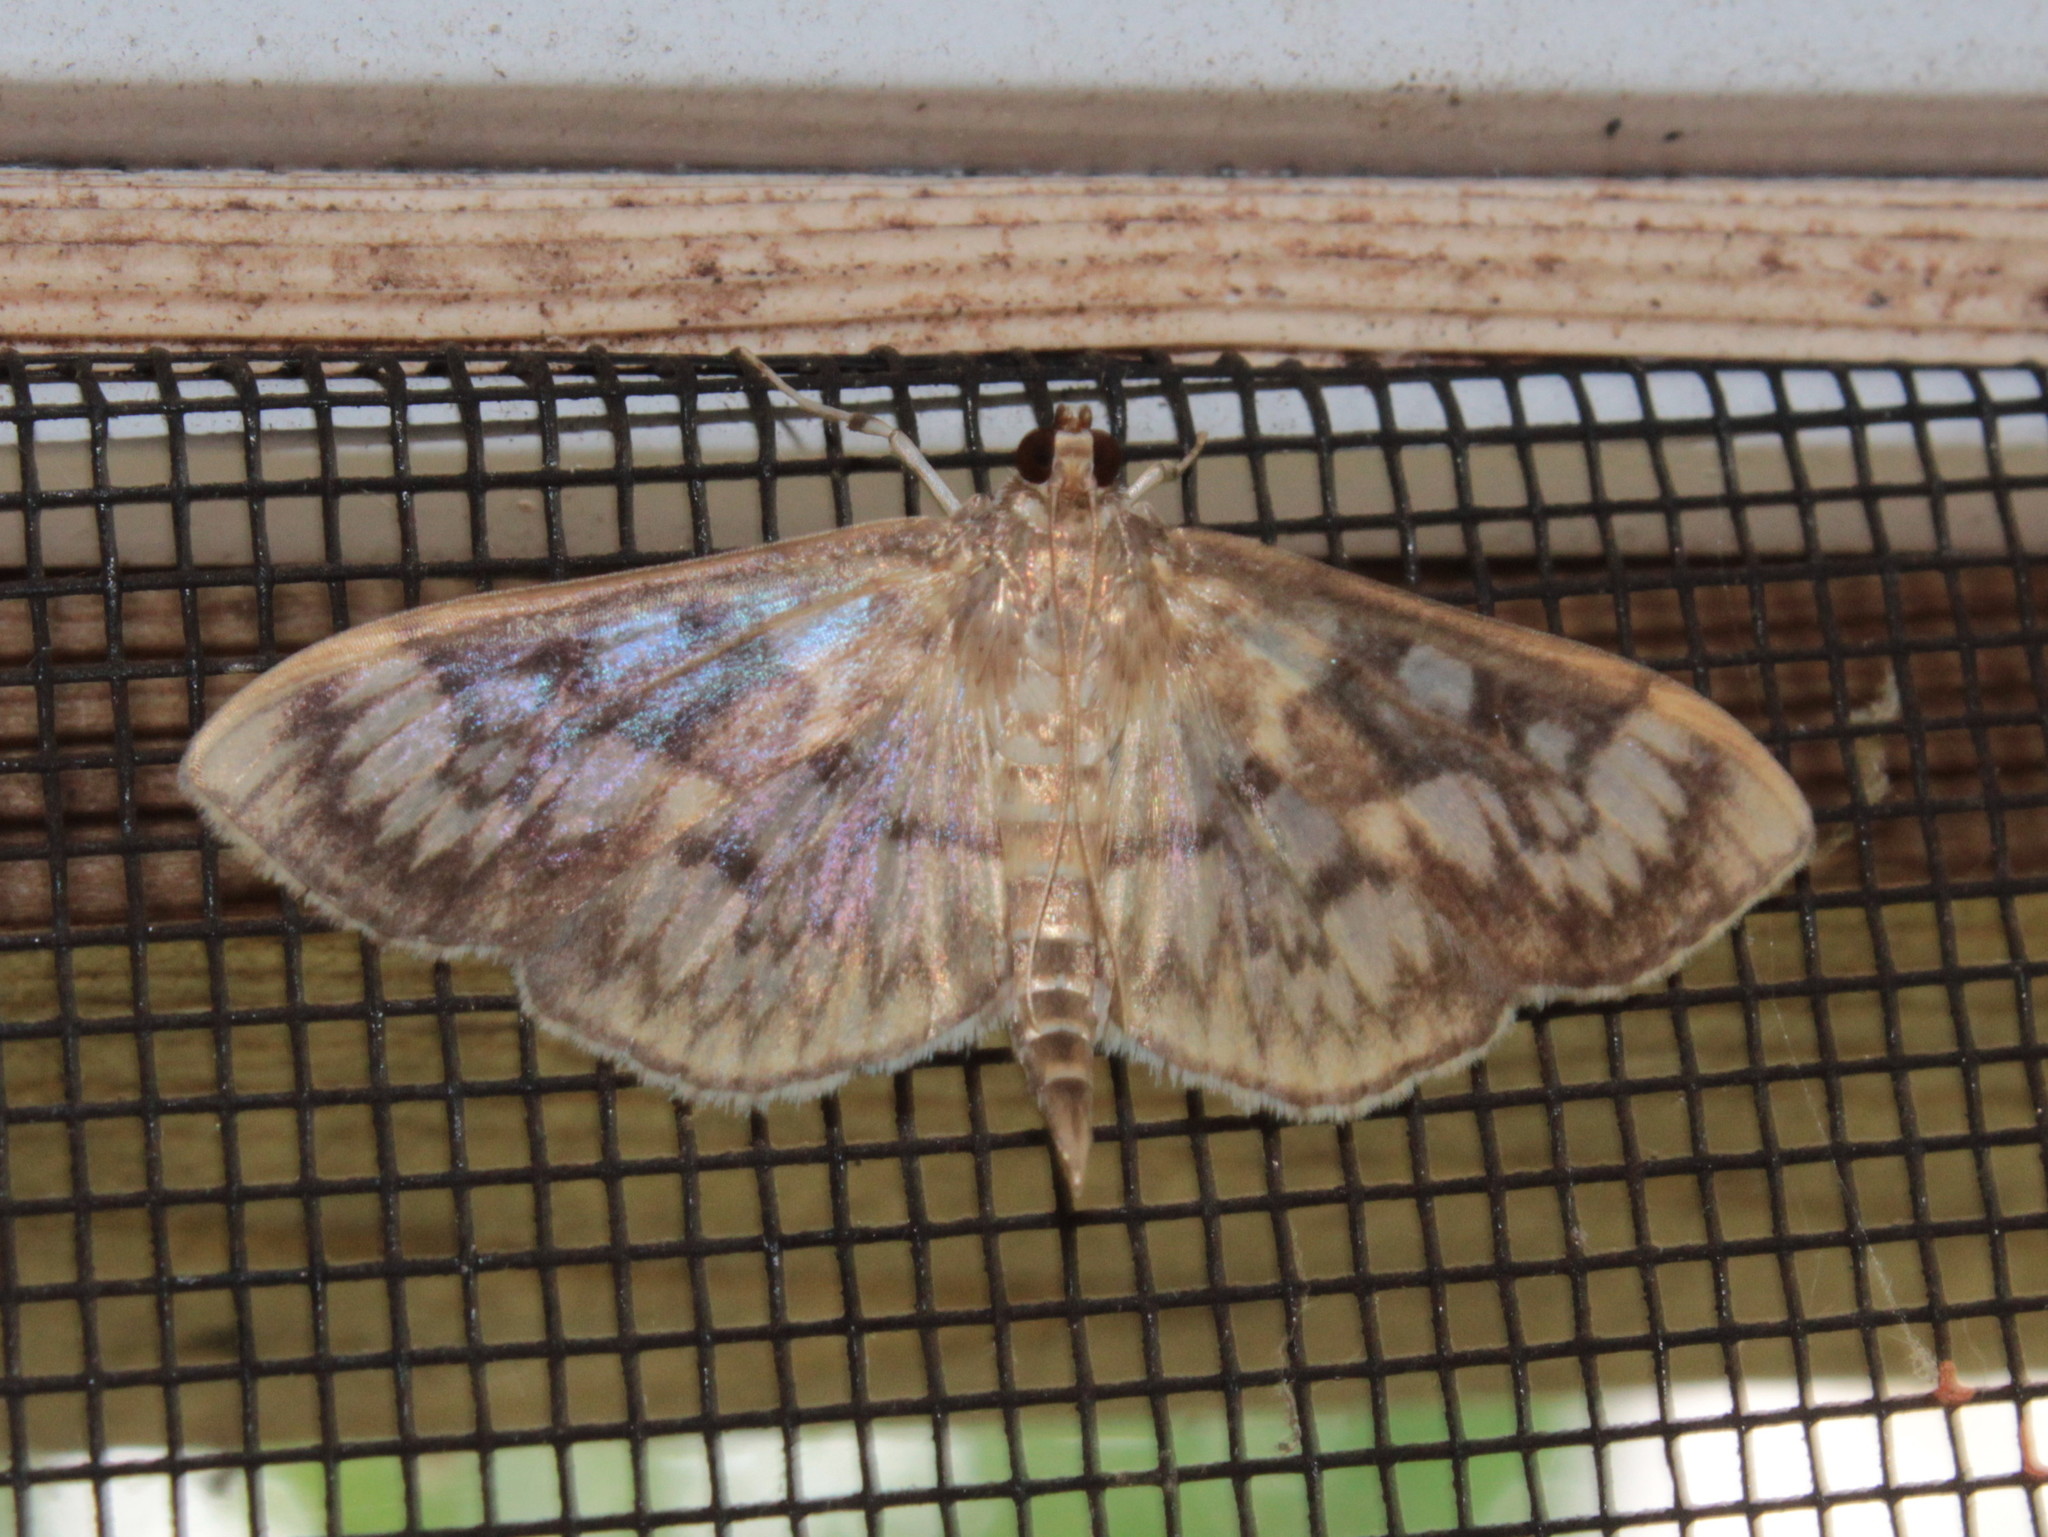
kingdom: Animalia
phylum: Arthropoda
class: Insecta
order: Lepidoptera
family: Crambidae
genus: Herpetogramma
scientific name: Herpetogramma thestealis
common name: Zigzag herpetogramma moth
